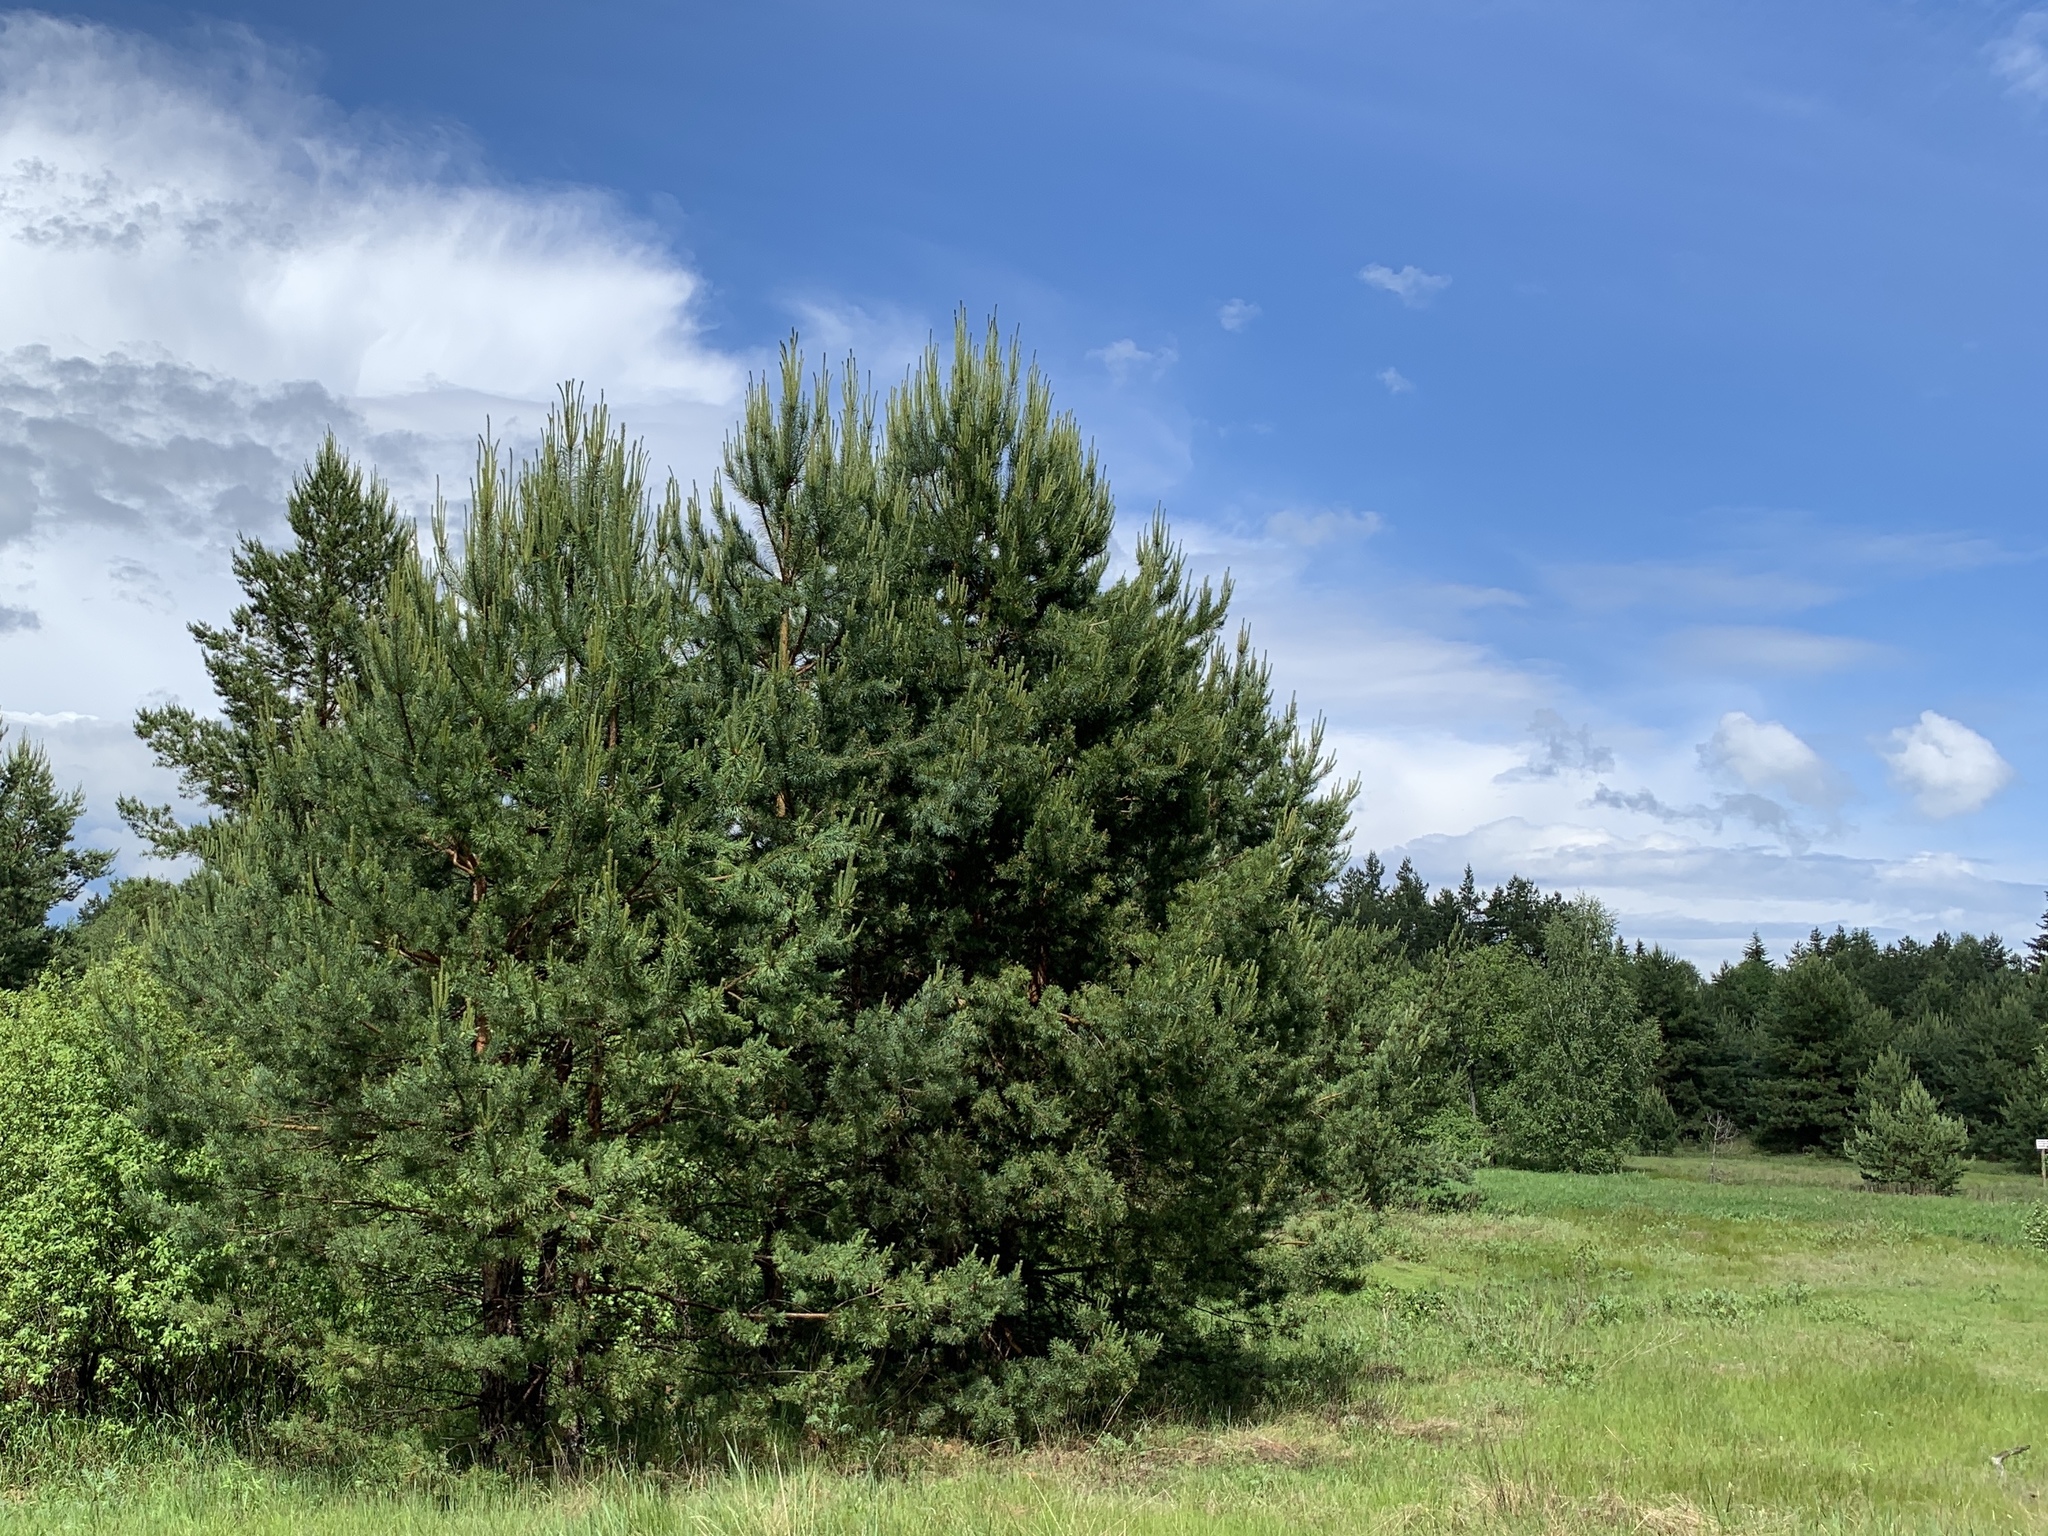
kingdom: Plantae
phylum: Tracheophyta
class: Pinopsida
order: Pinales
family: Pinaceae
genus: Pinus
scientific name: Pinus sylvestris
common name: Scots pine
